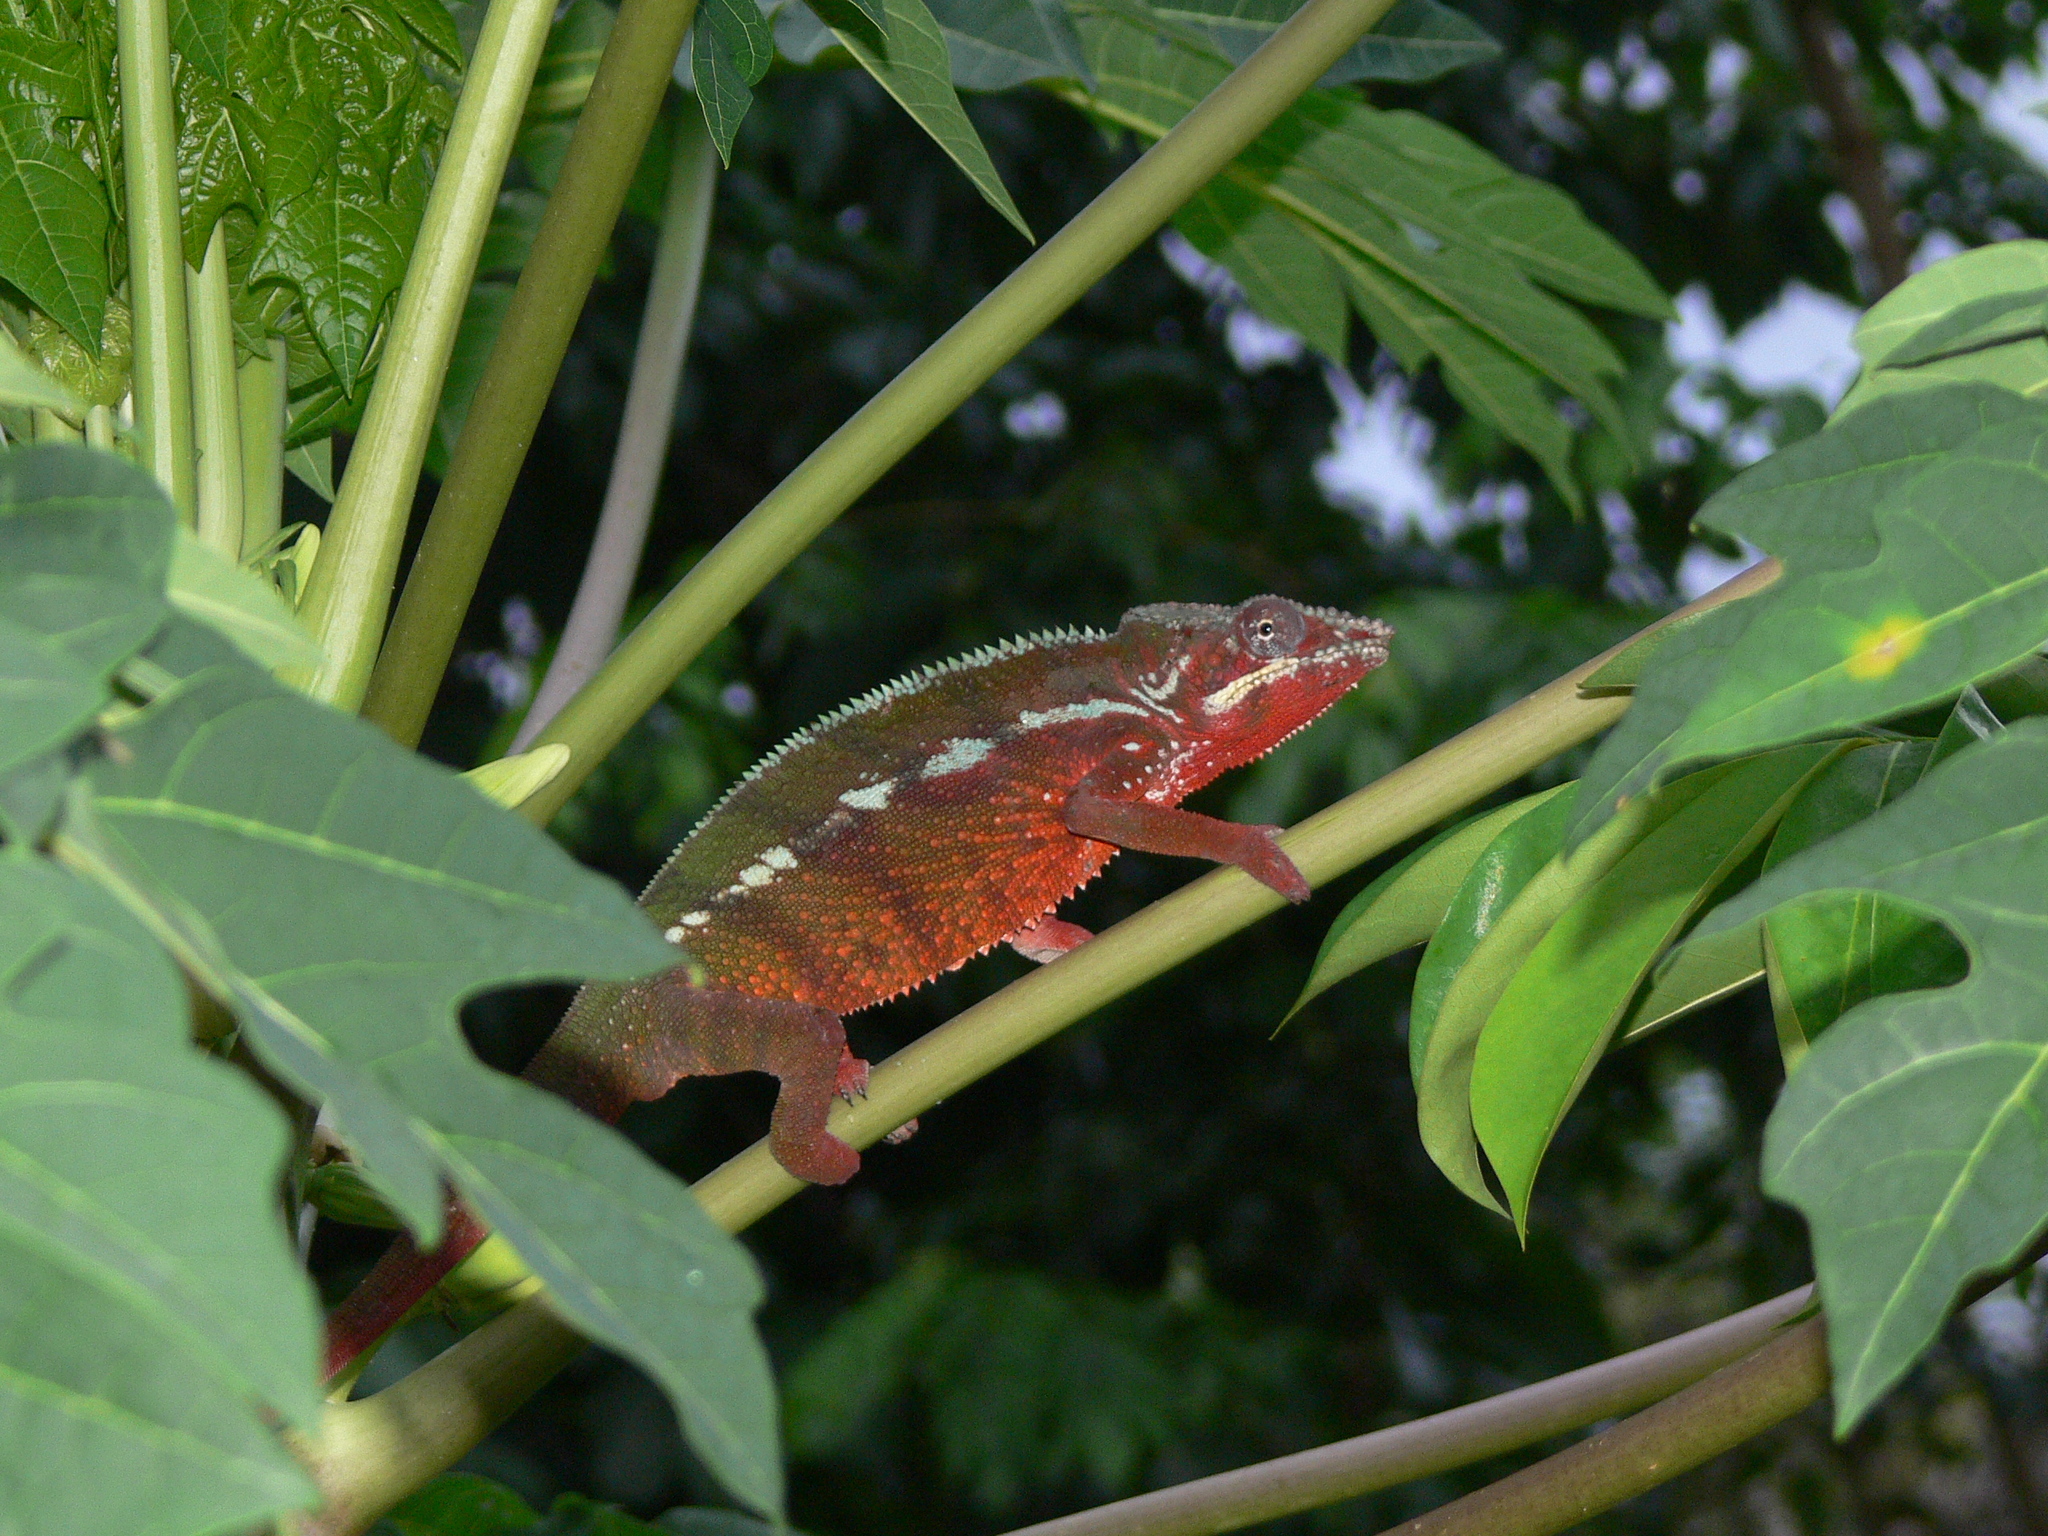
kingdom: Animalia
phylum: Chordata
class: Squamata
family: Chamaeleonidae
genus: Furcifer
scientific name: Furcifer pardalis
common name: Panther chameleon
